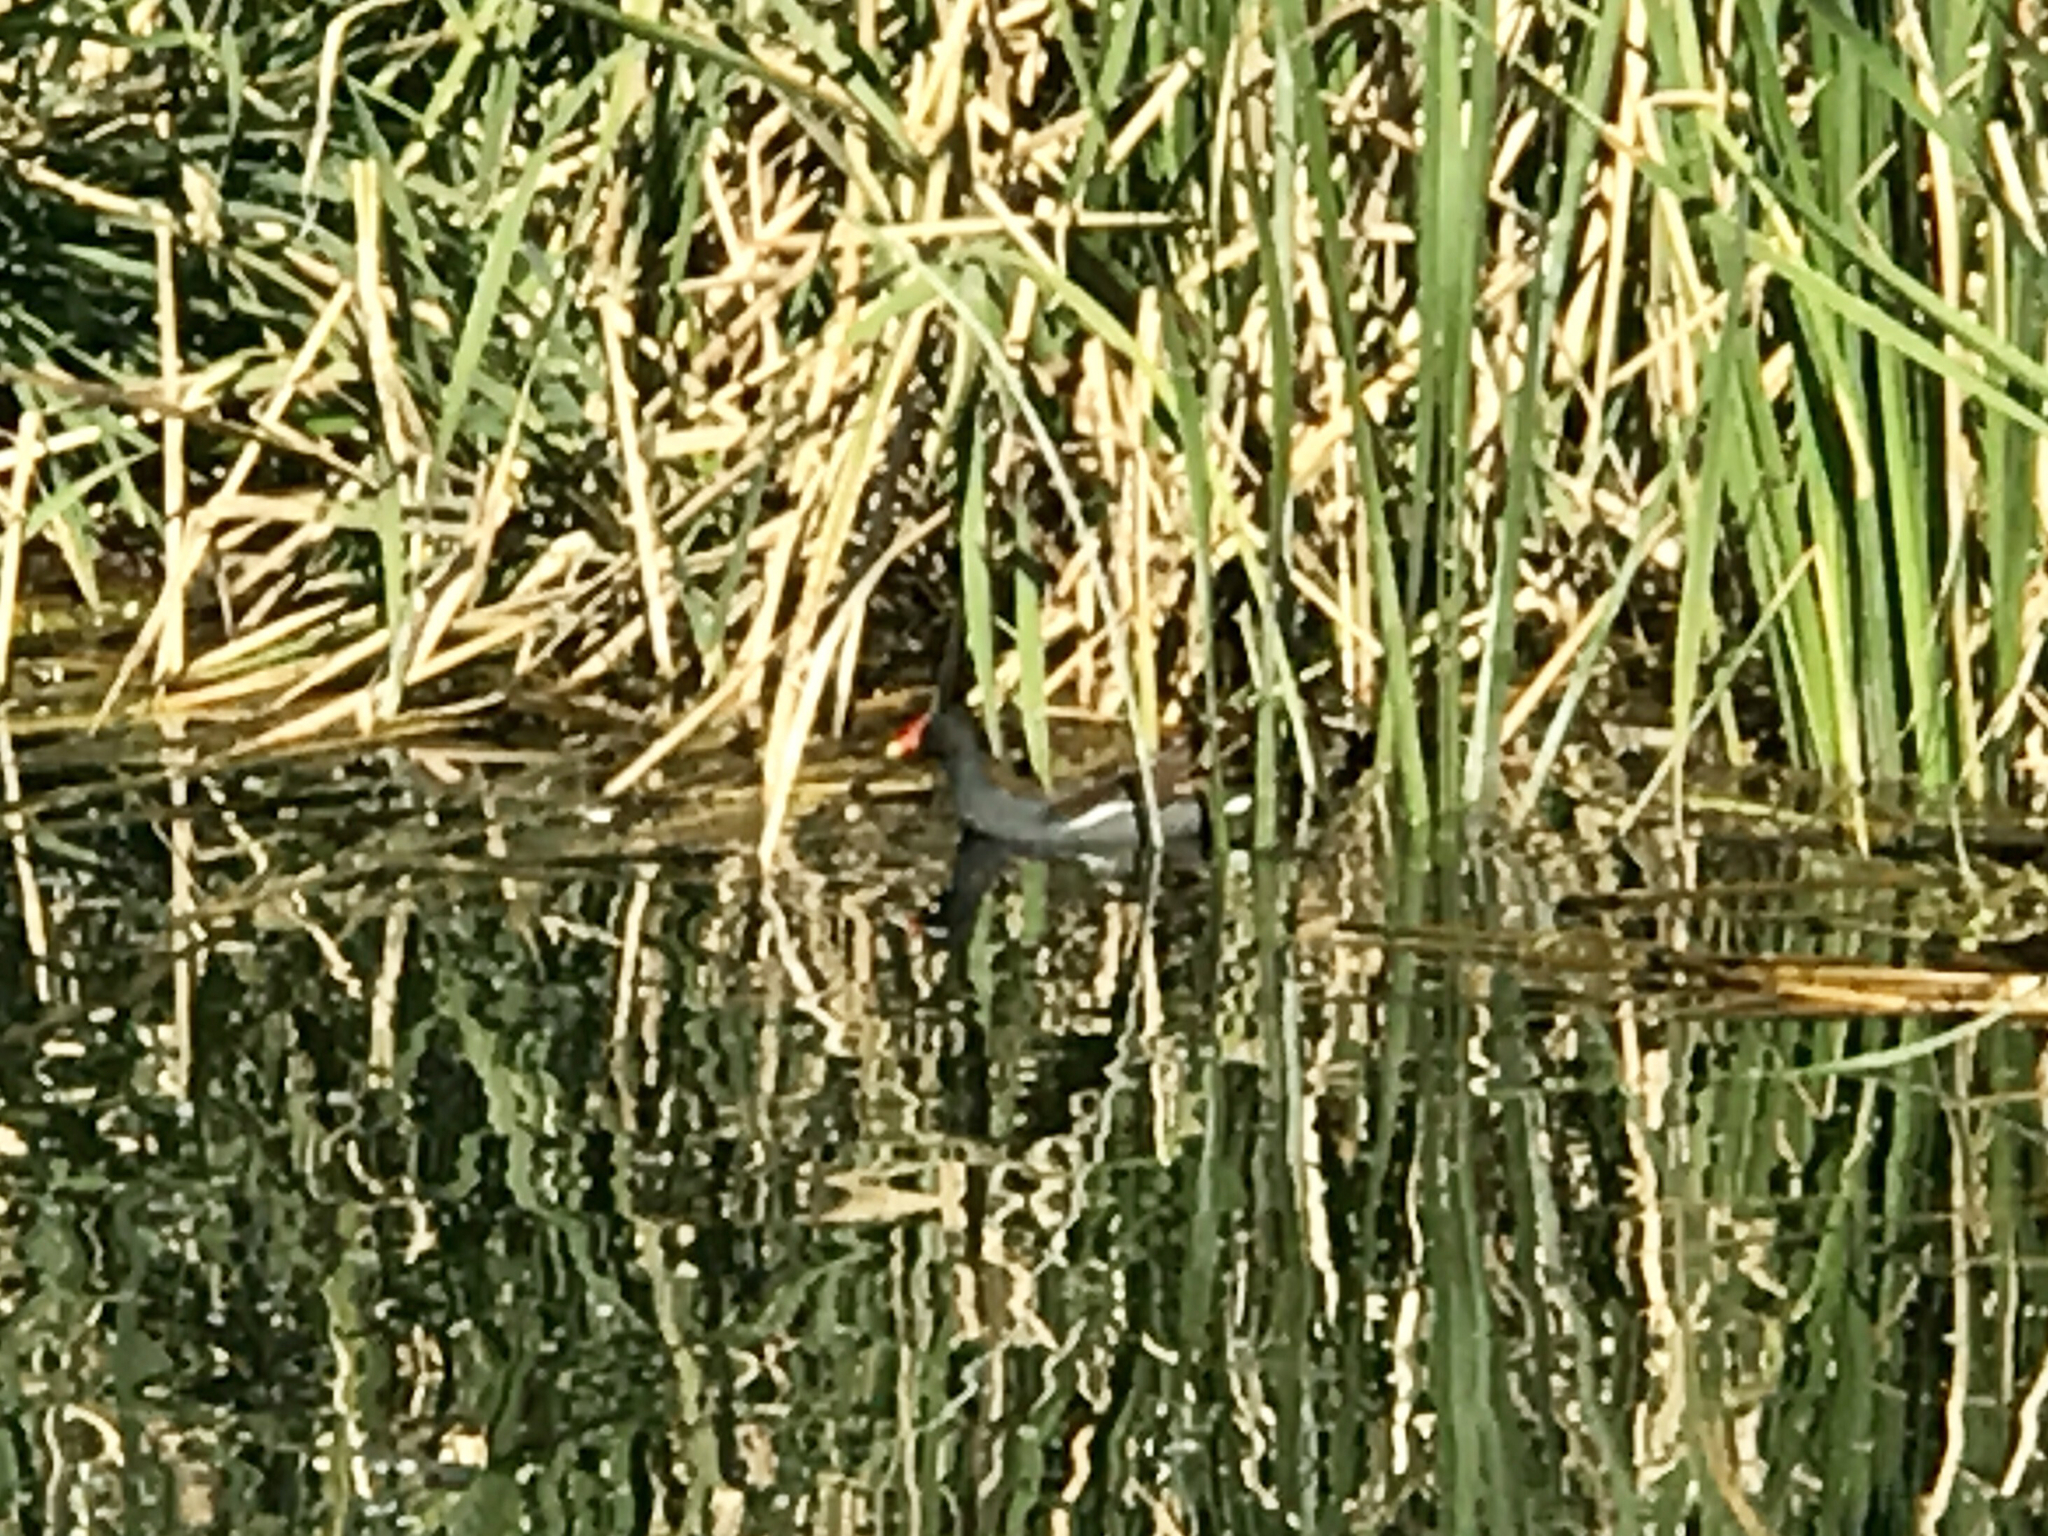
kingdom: Animalia
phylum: Chordata
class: Aves
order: Gruiformes
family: Rallidae
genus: Gallinula
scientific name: Gallinula chloropus
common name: Common moorhen
